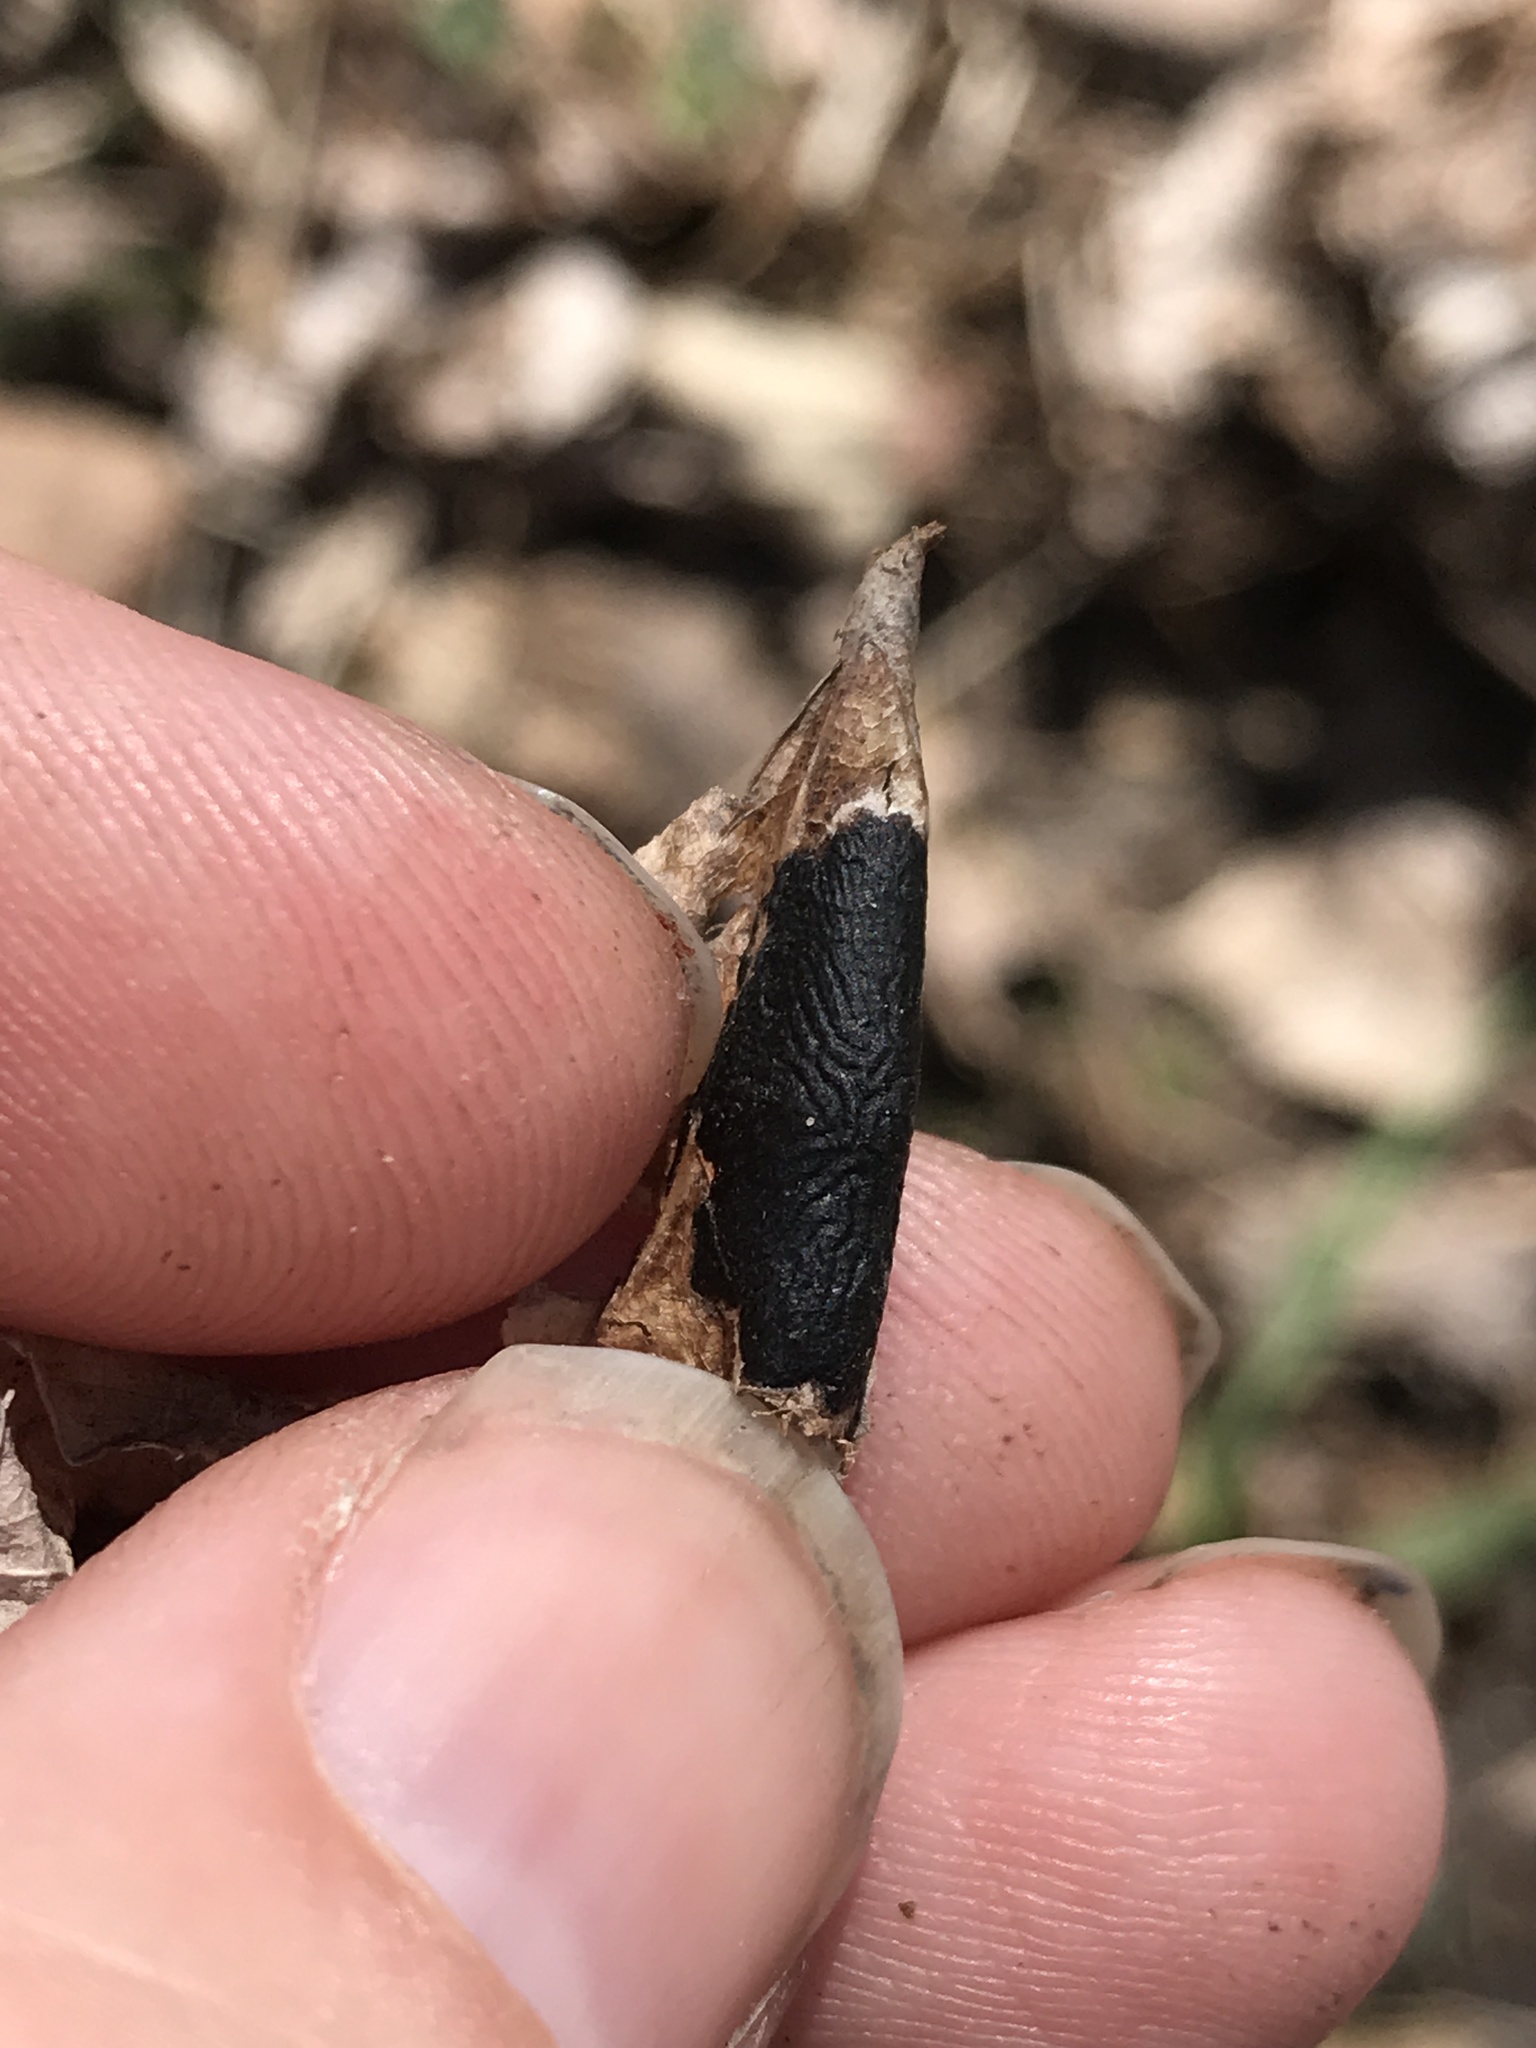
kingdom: Fungi
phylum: Ascomycota
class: Leotiomycetes
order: Rhytismatales
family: Rhytismataceae
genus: Rhytisma
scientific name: Rhytisma acerinum
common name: European tar spot
